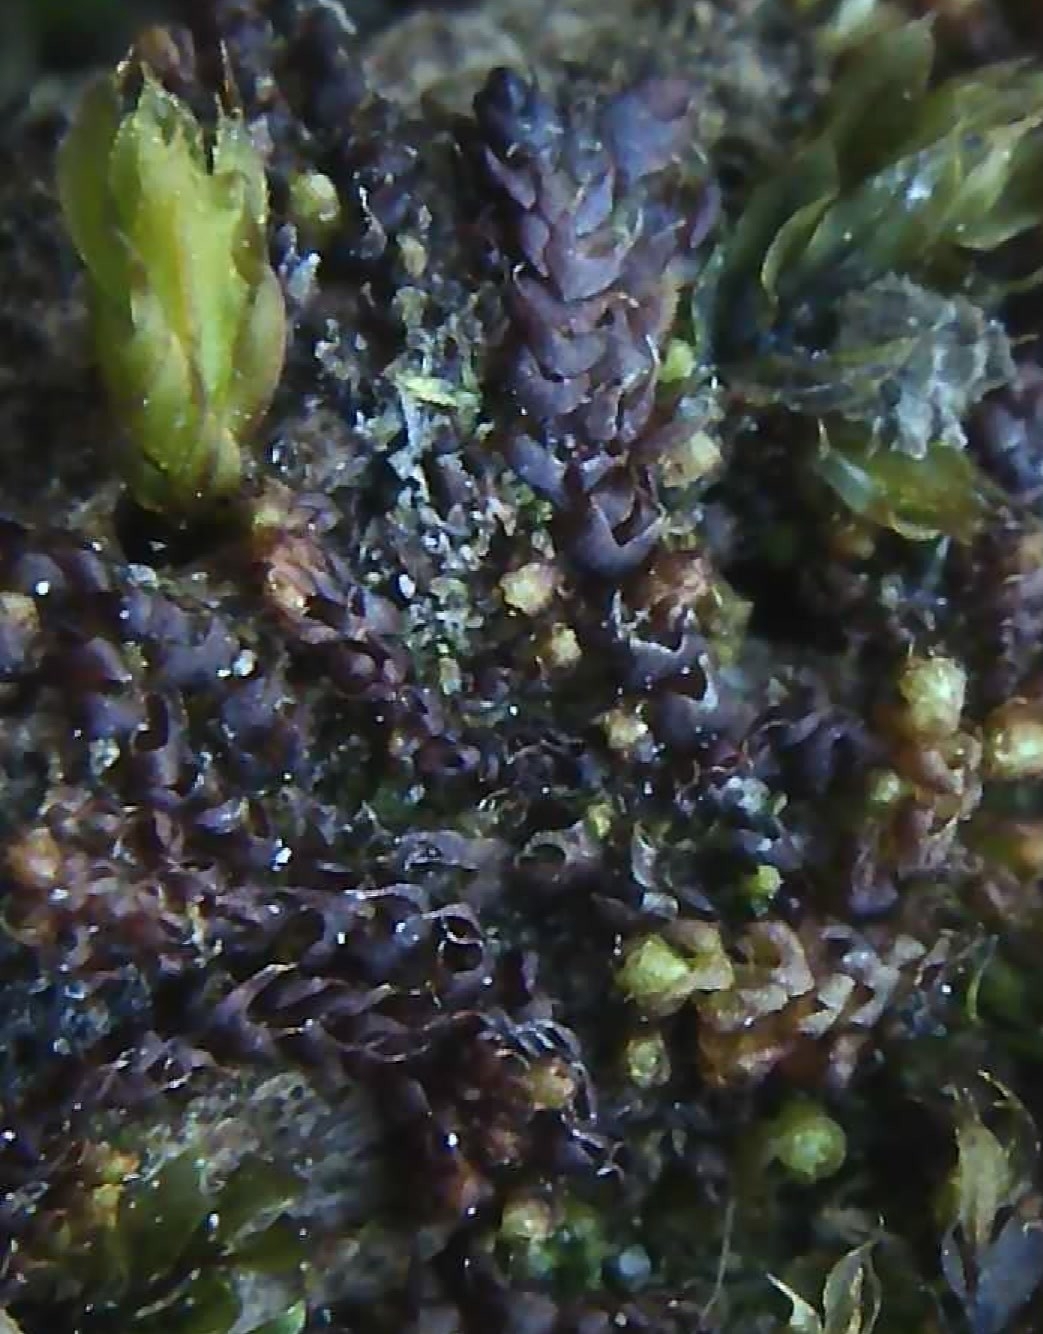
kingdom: Plantae
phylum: Marchantiophyta
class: Jungermanniopsida
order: Jungermanniales
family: Cephaloziaceae
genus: Nowellia
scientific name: Nowellia curvifolia
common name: Wood rustwort
